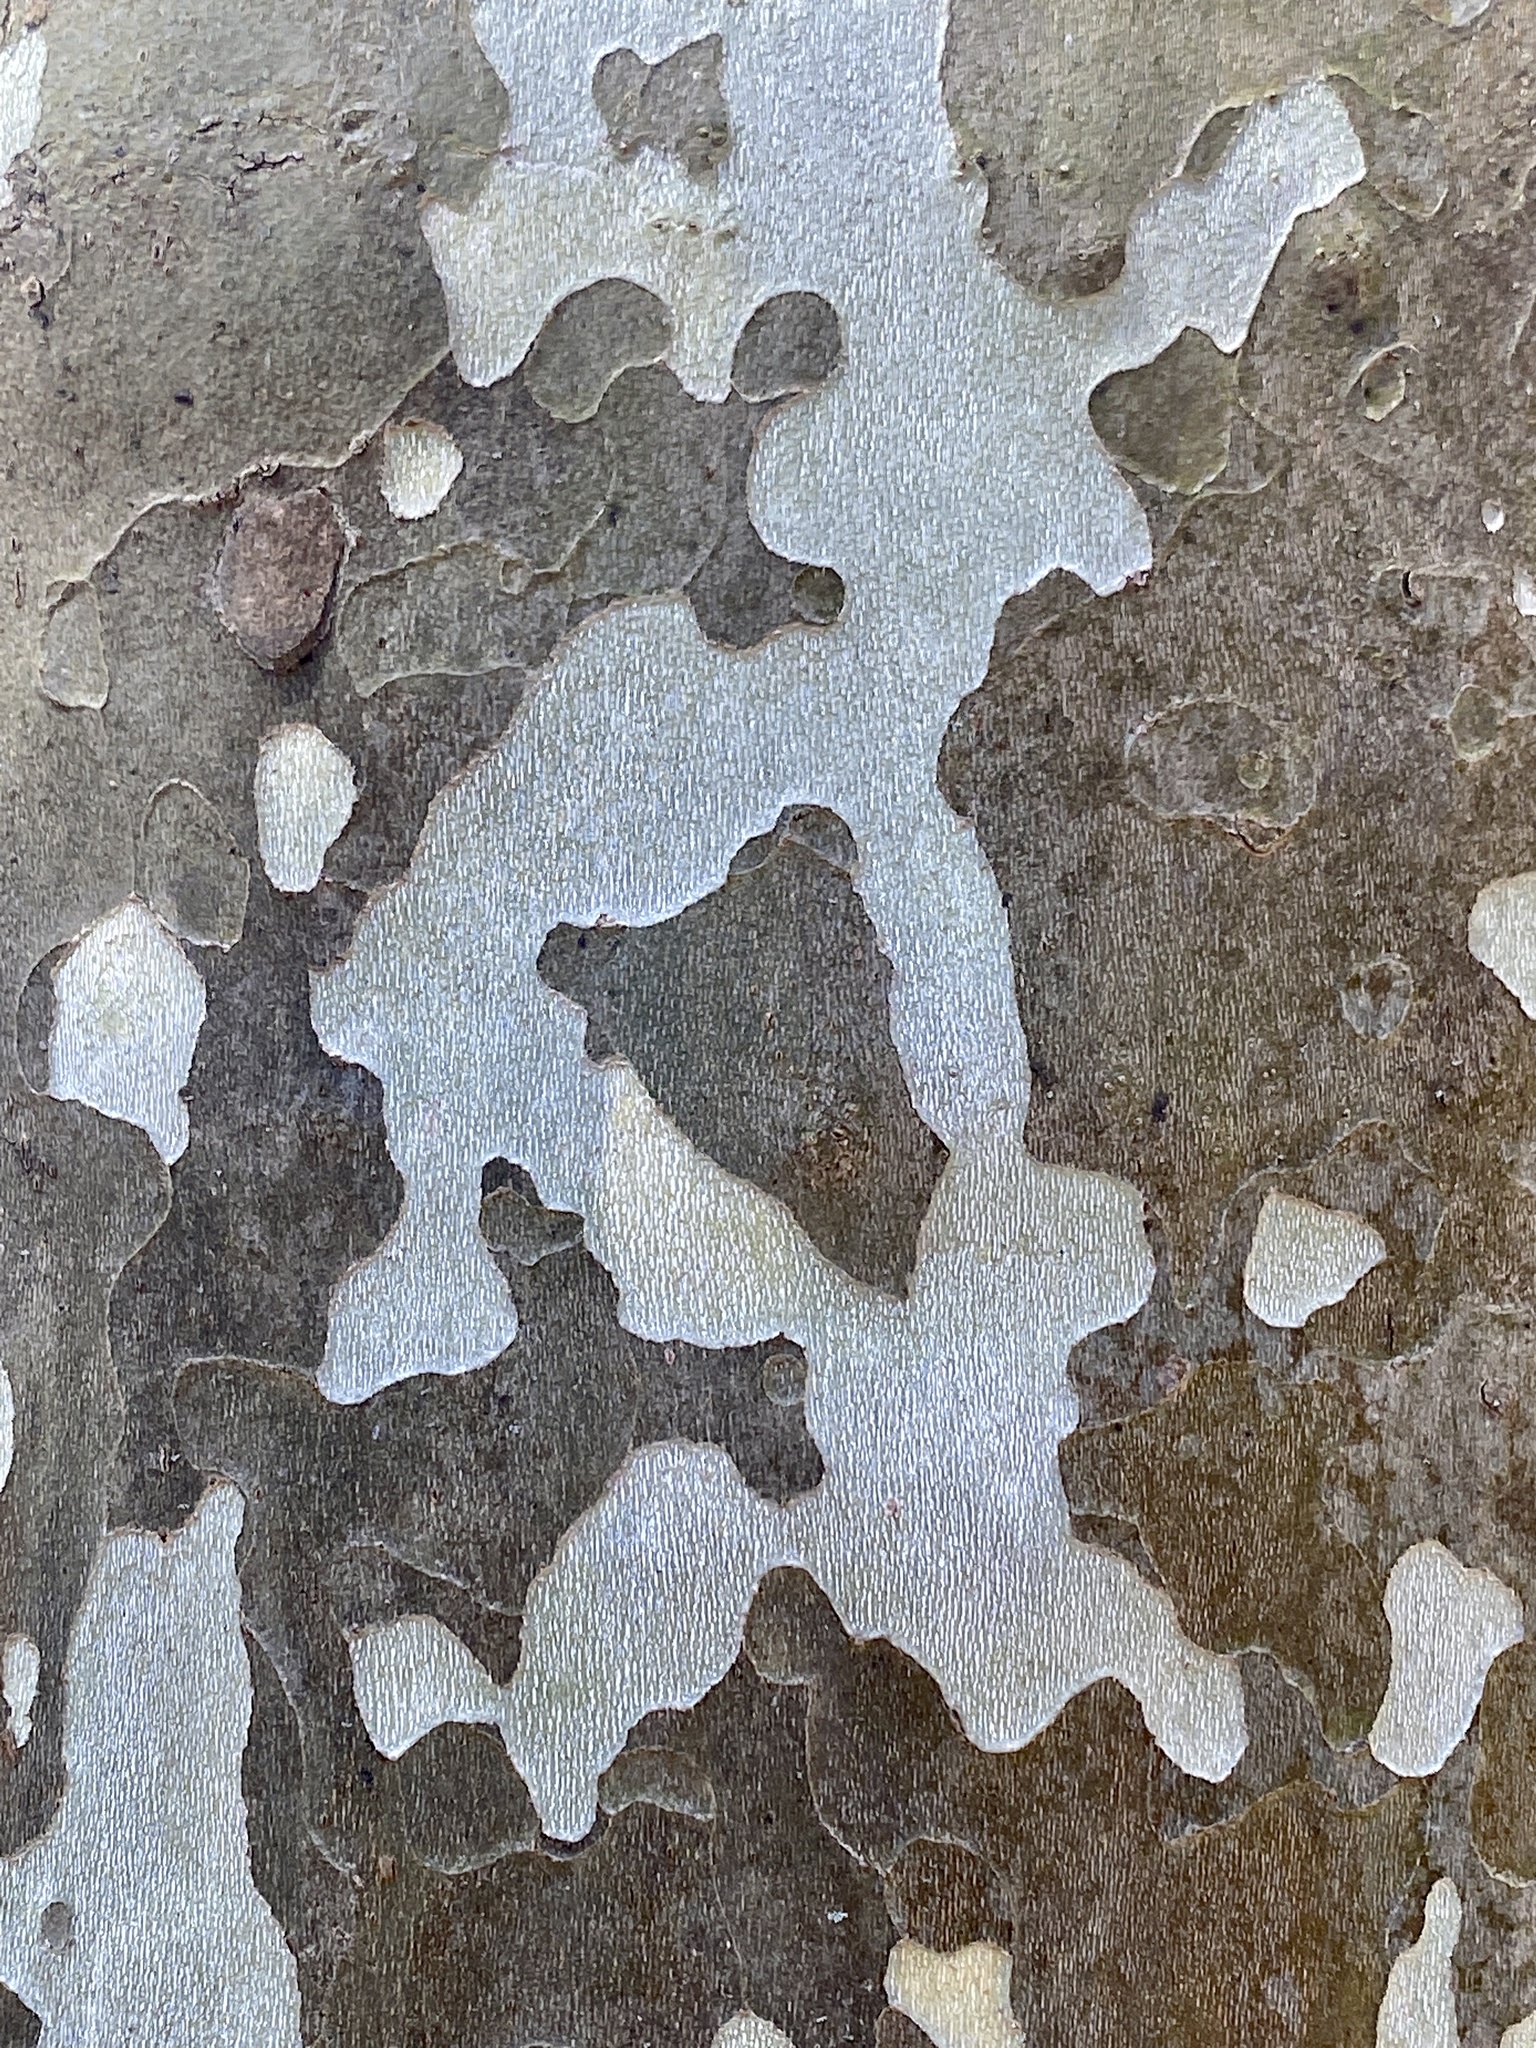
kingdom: Plantae
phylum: Tracheophyta
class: Magnoliopsida
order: Proteales
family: Platanaceae
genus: Platanus
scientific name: Platanus occidentalis
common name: American sycamore
